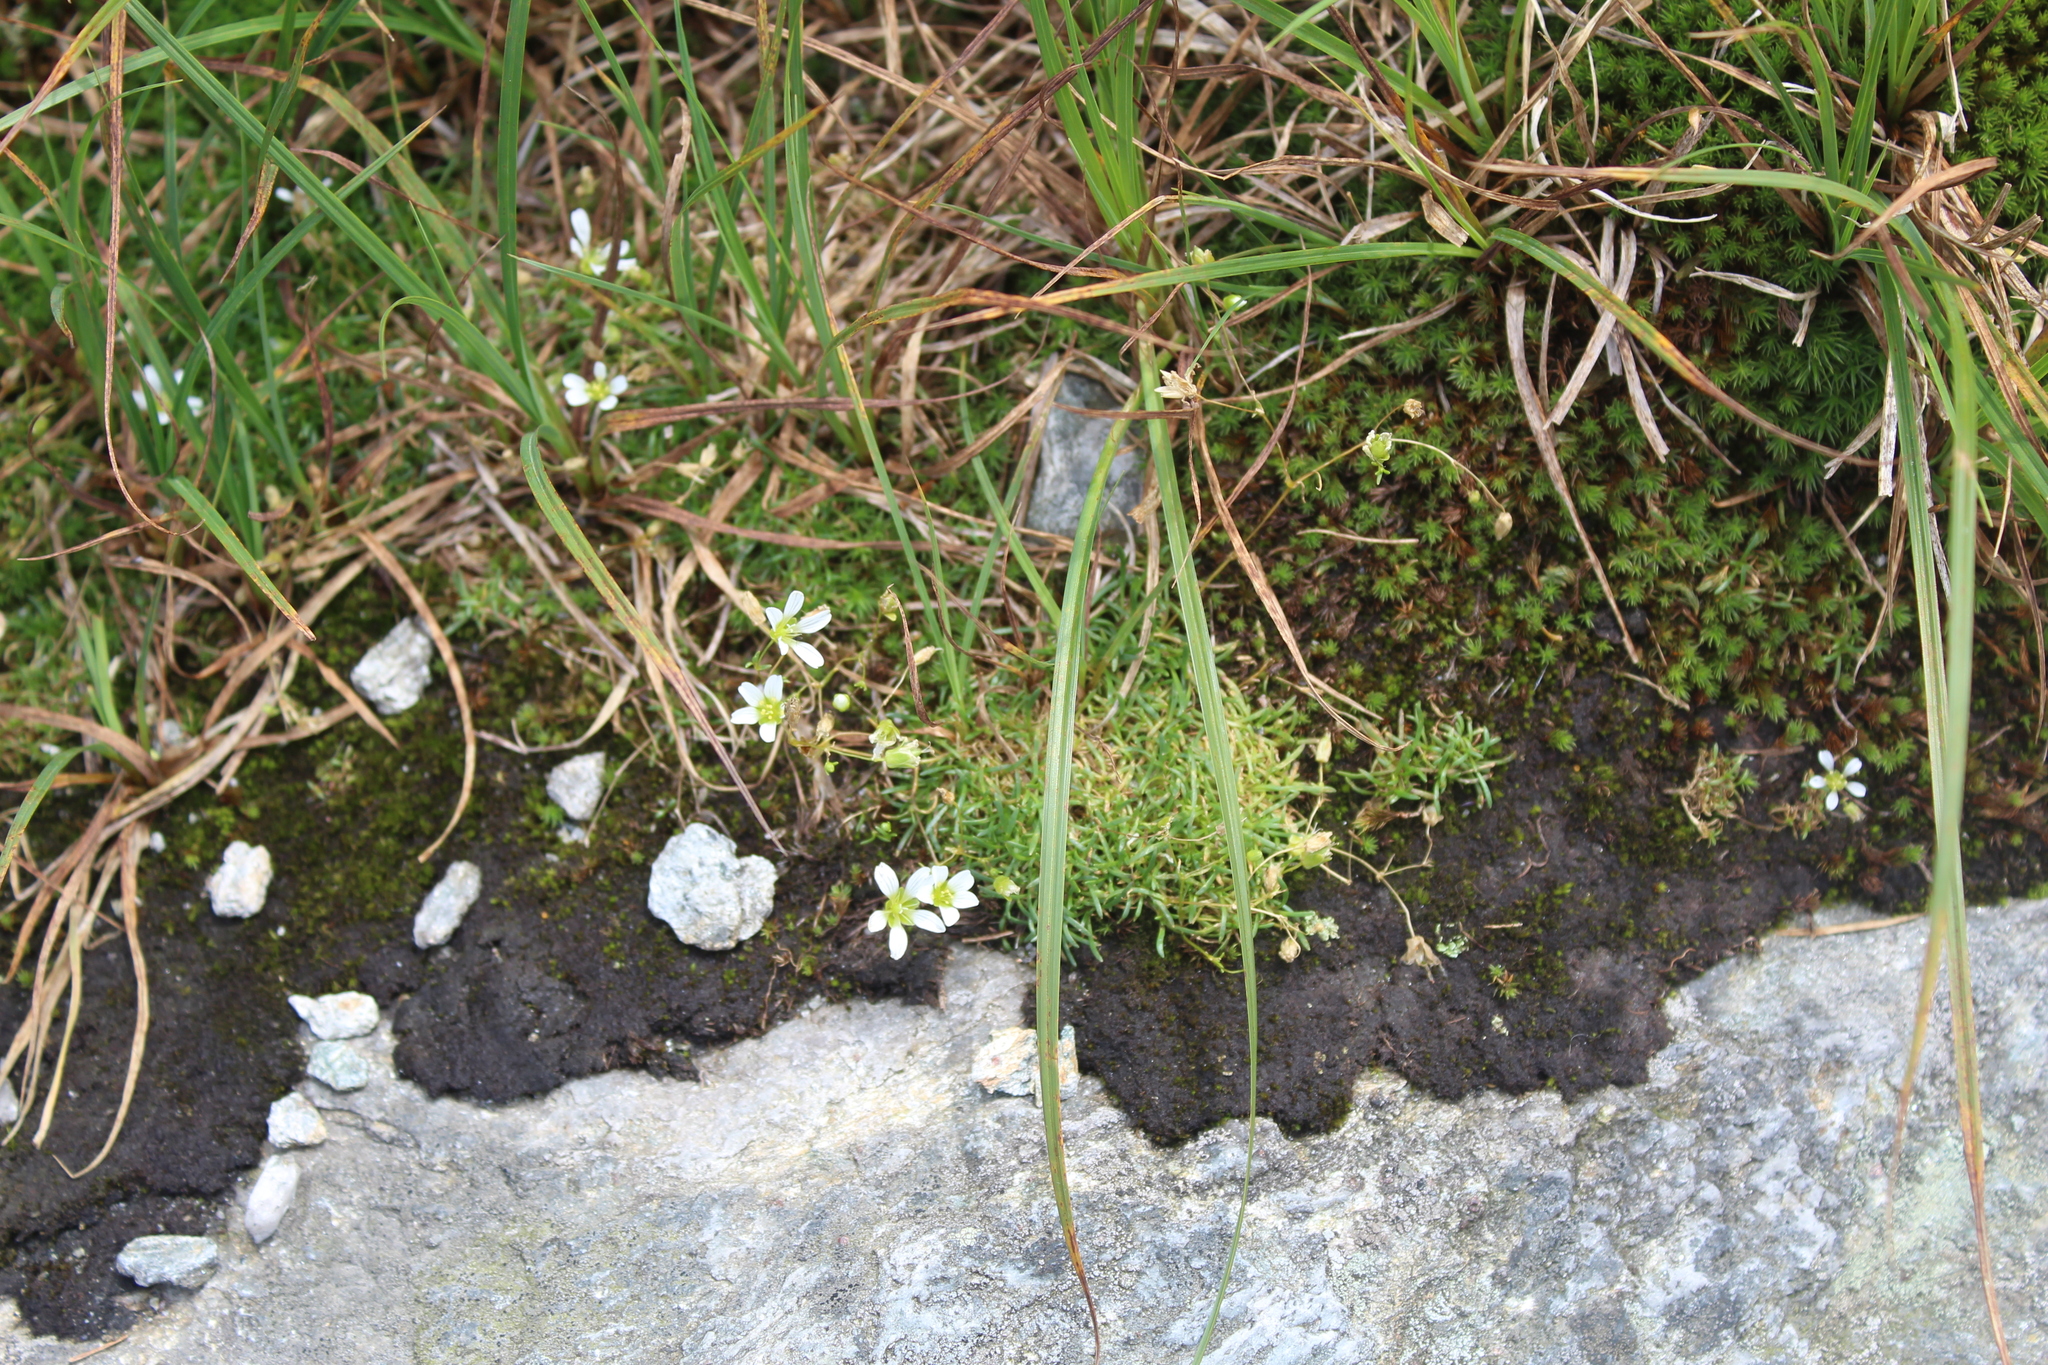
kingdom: Plantae
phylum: Tracheophyta
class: Magnoliopsida
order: Caryophyllales
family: Caryophyllaceae
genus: Geocarpon
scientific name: Geocarpon groenlandicum
